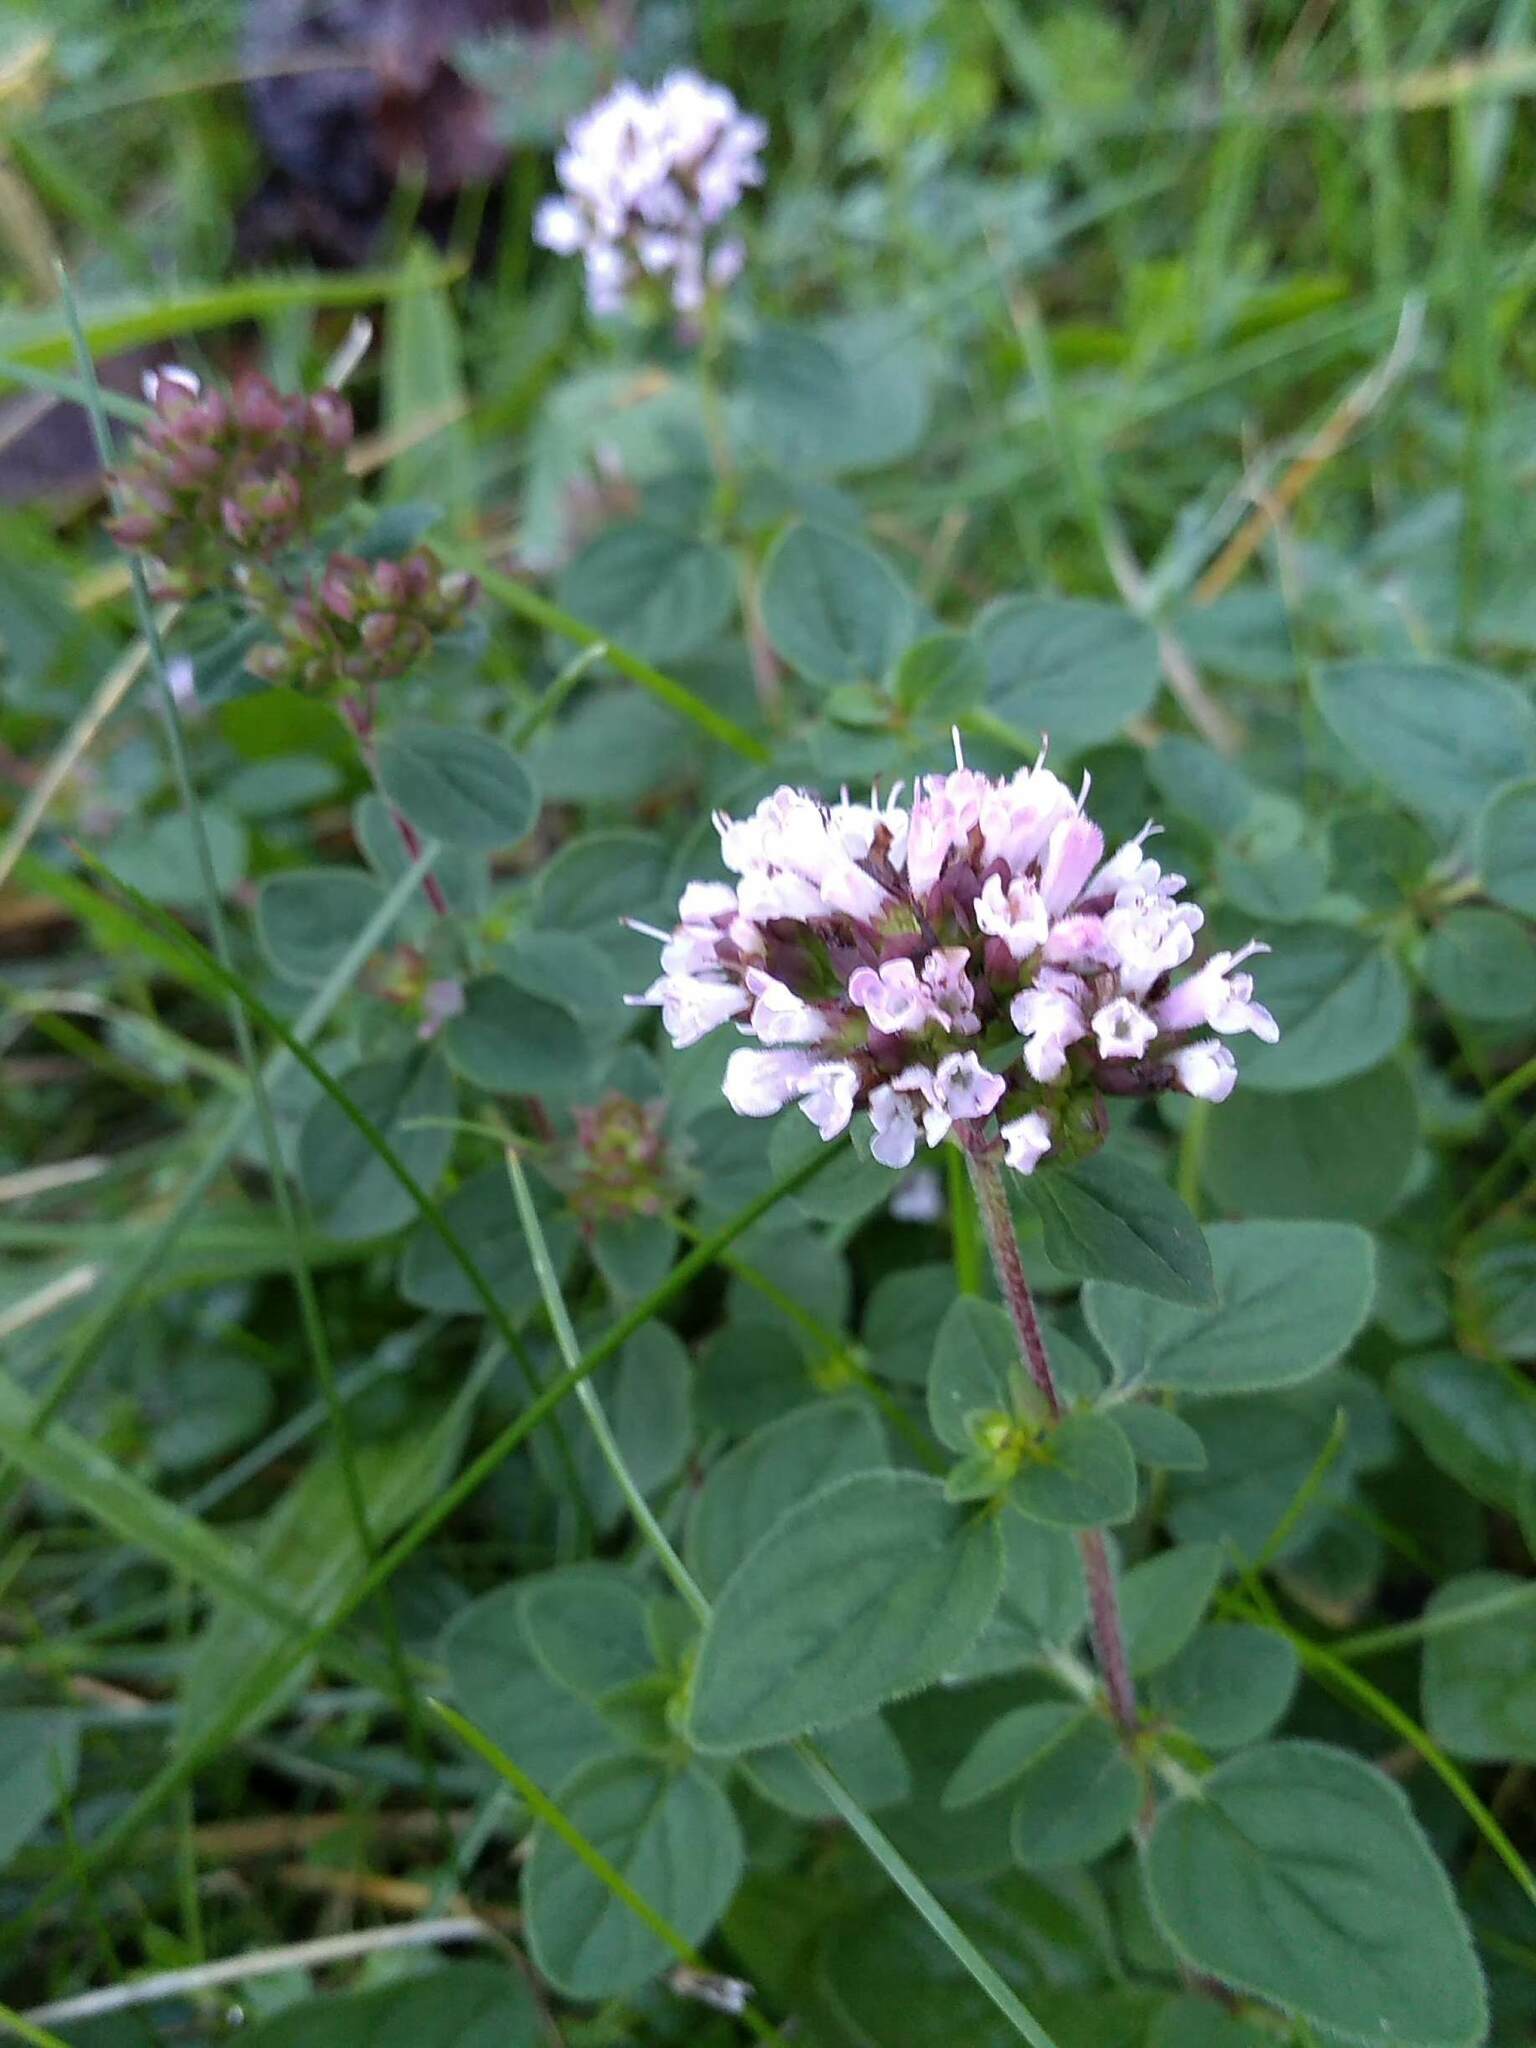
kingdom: Plantae
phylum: Tracheophyta
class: Magnoliopsida
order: Lamiales
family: Lamiaceae
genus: Origanum
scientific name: Origanum vulgare
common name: Wild marjoram
